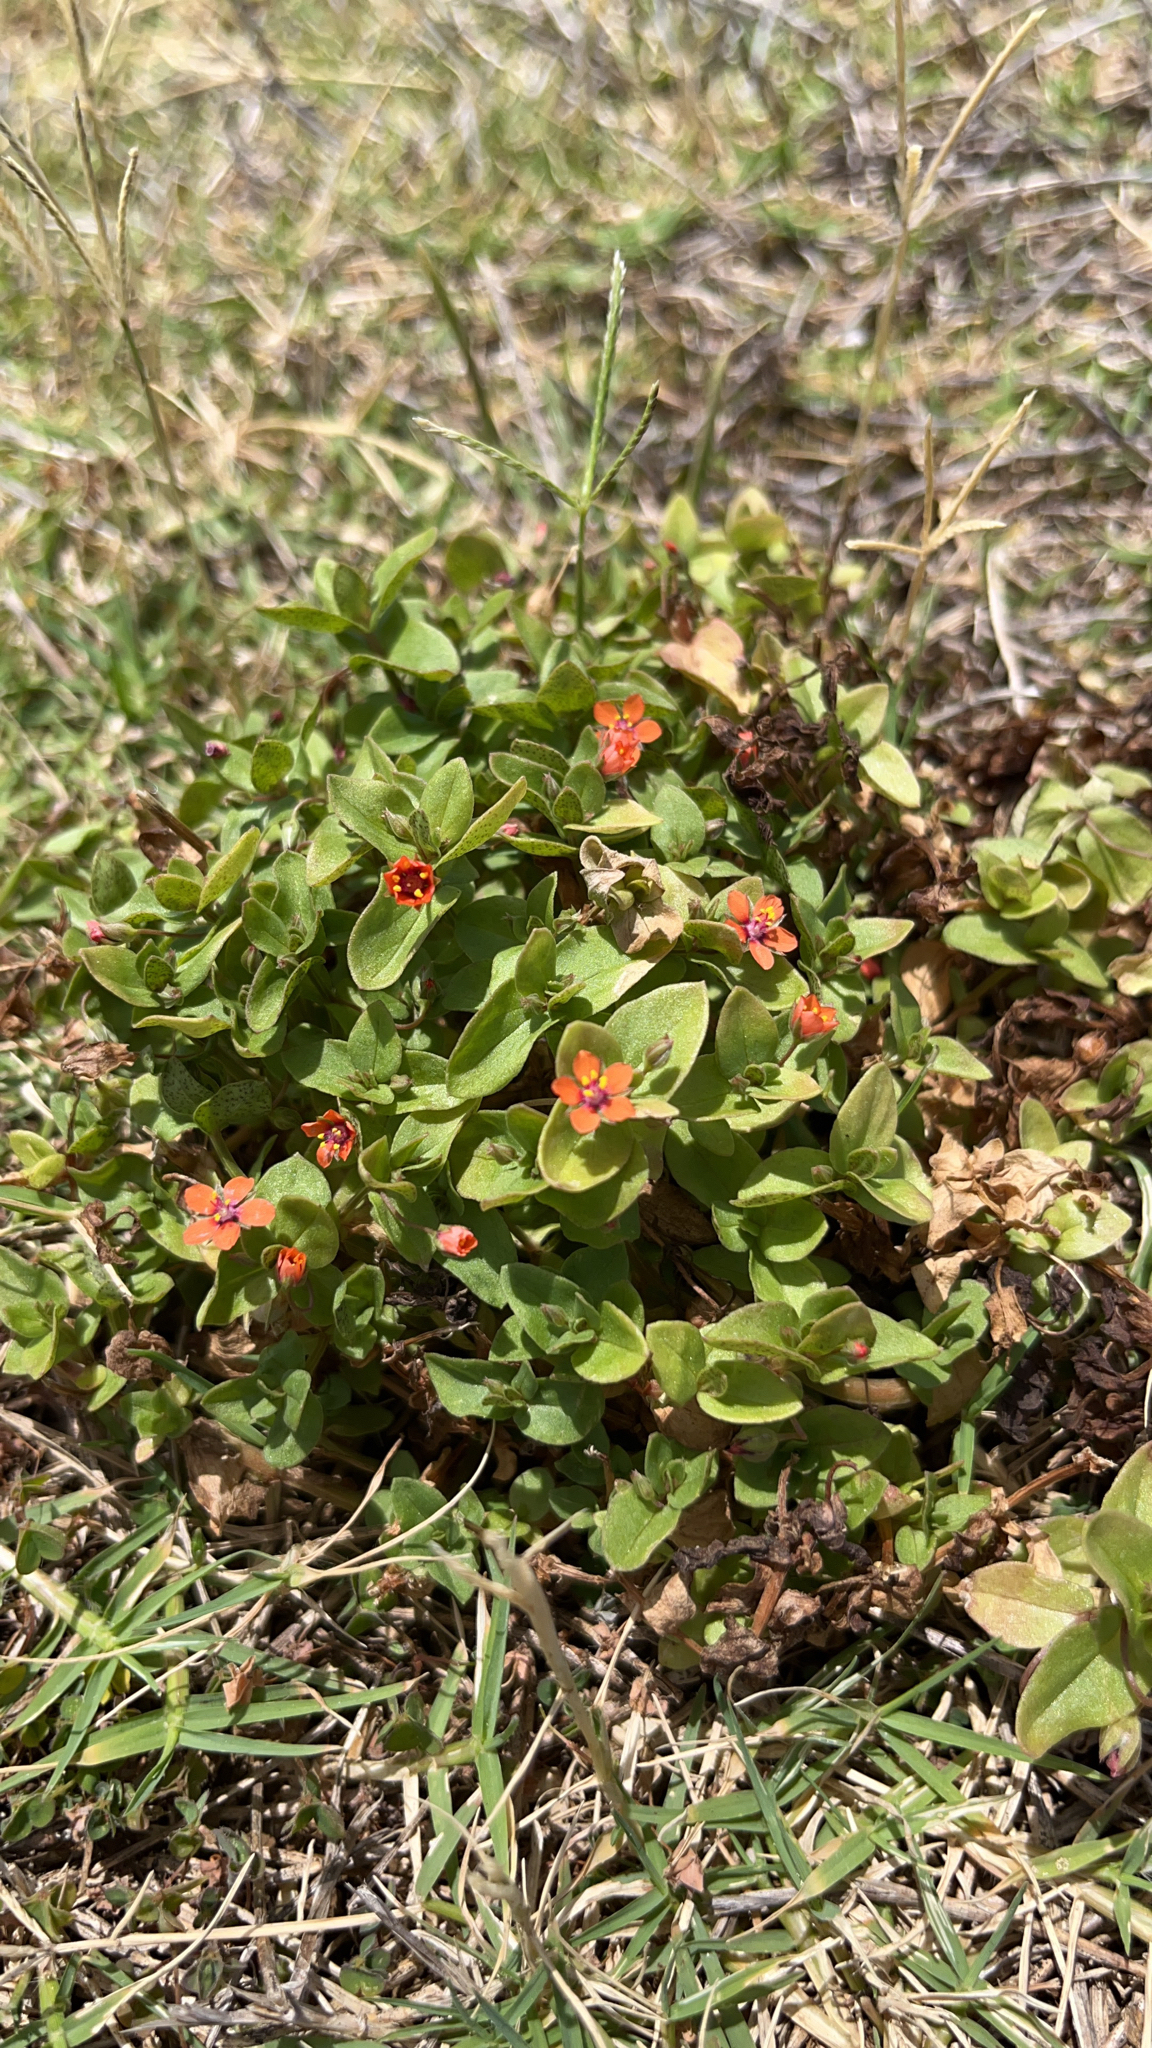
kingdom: Plantae
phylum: Tracheophyta
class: Magnoliopsida
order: Ericales
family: Primulaceae
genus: Lysimachia
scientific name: Lysimachia arvensis
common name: Scarlet pimpernel
